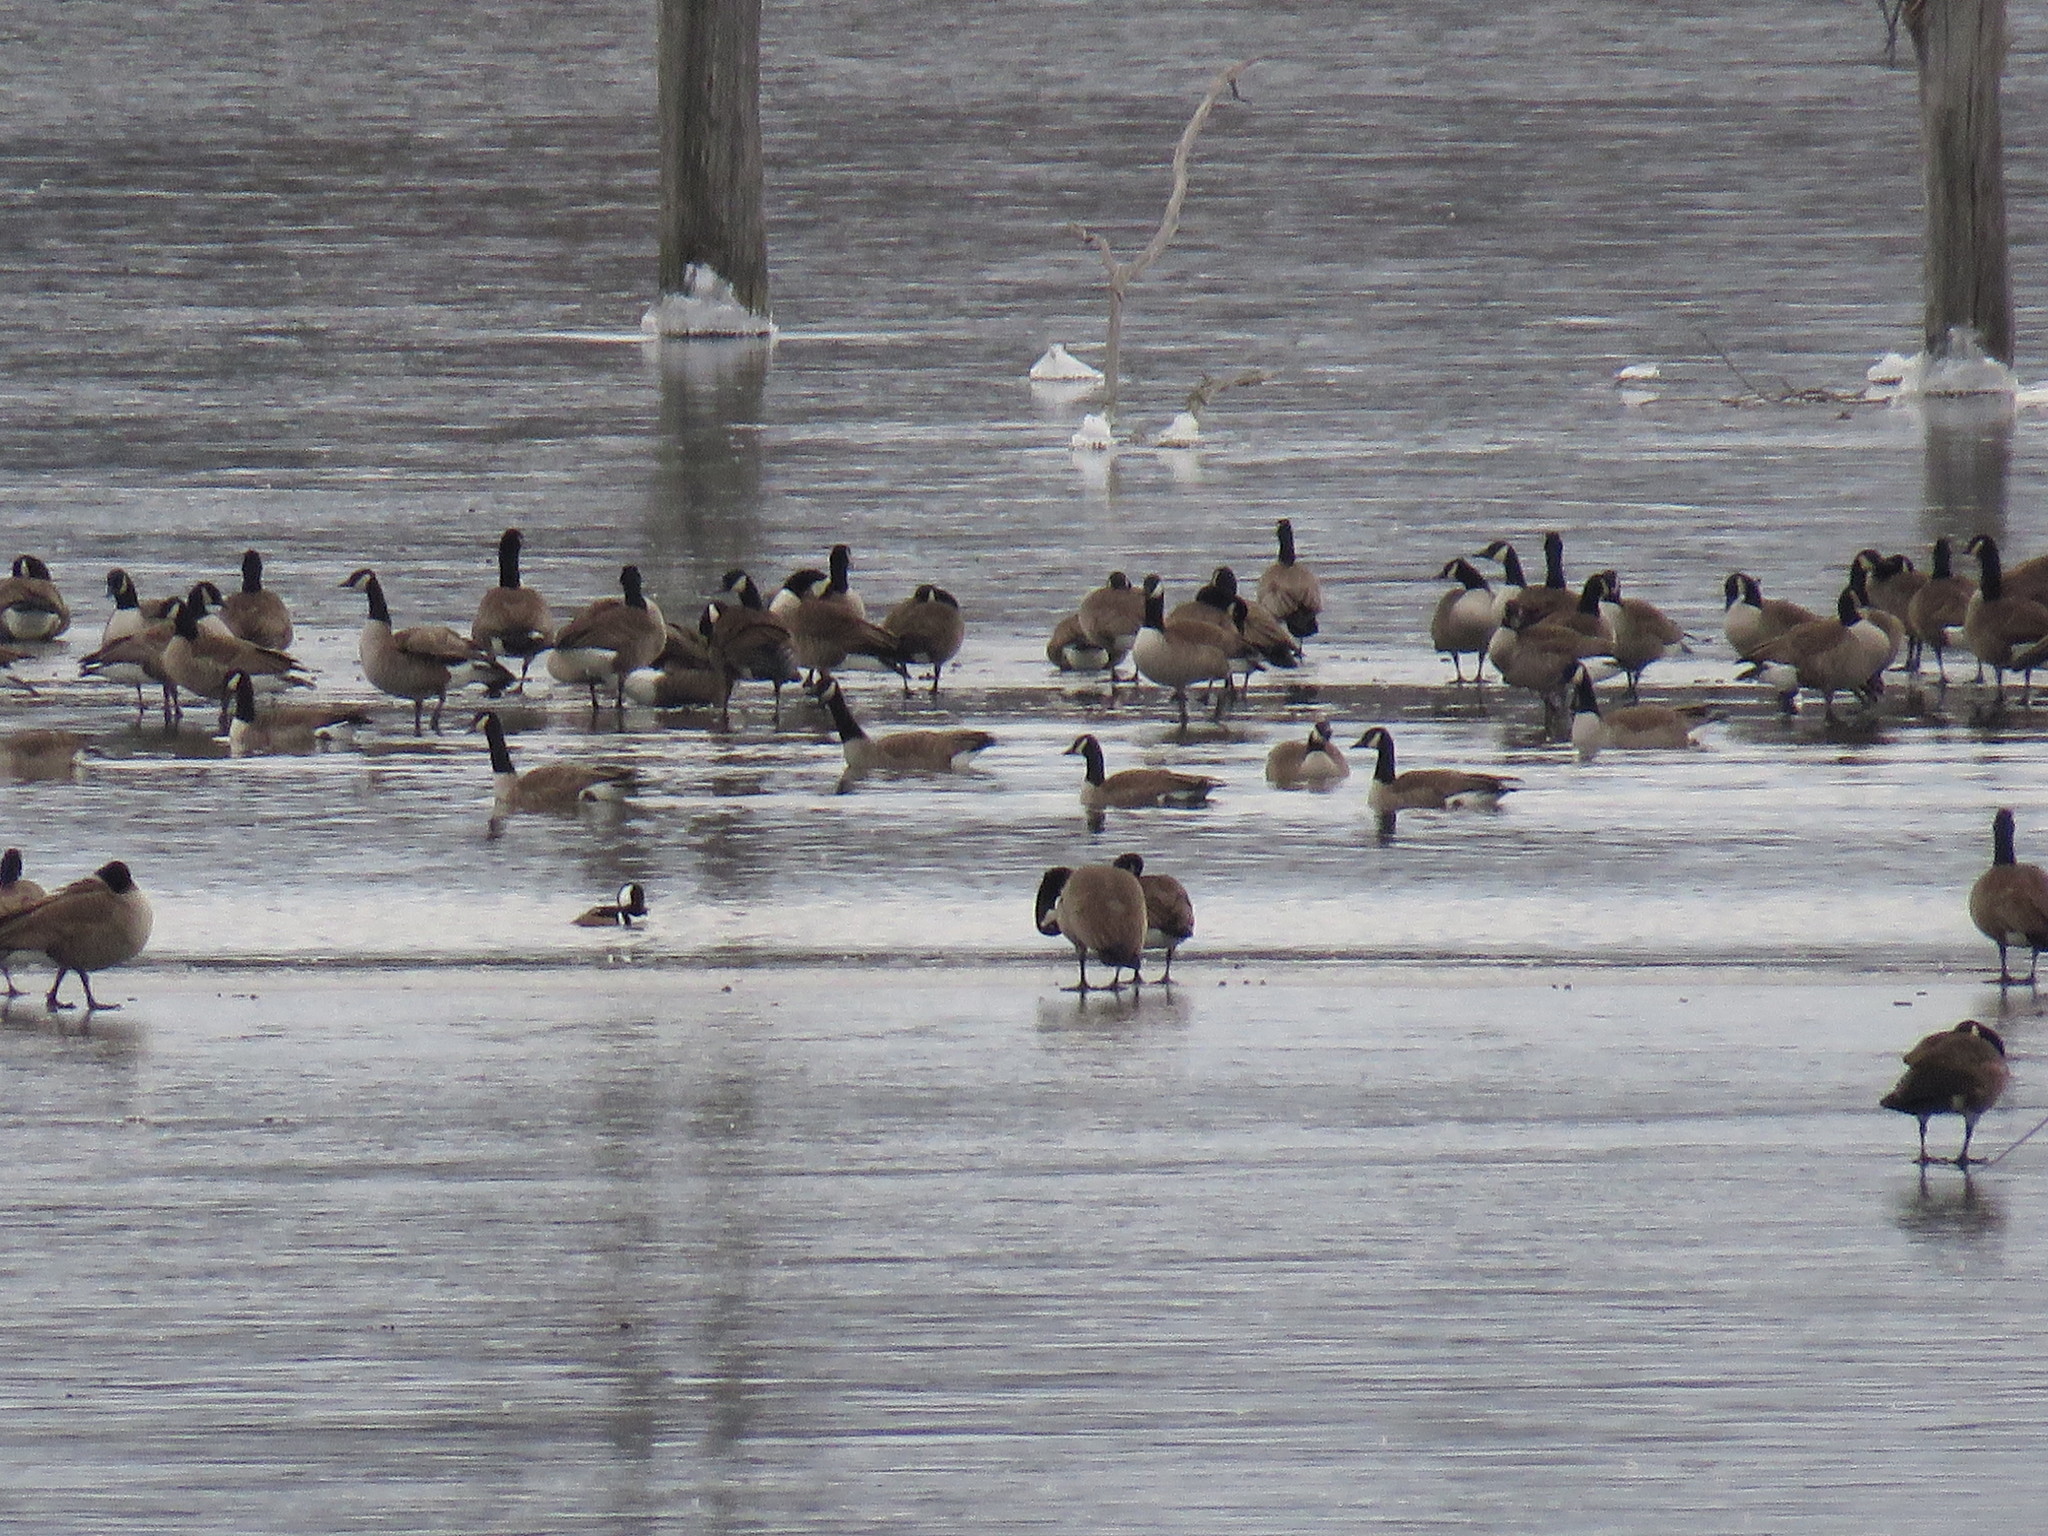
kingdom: Animalia
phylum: Chordata
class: Aves
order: Anseriformes
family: Anatidae
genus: Lophodytes
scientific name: Lophodytes cucullatus
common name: Hooded merganser
